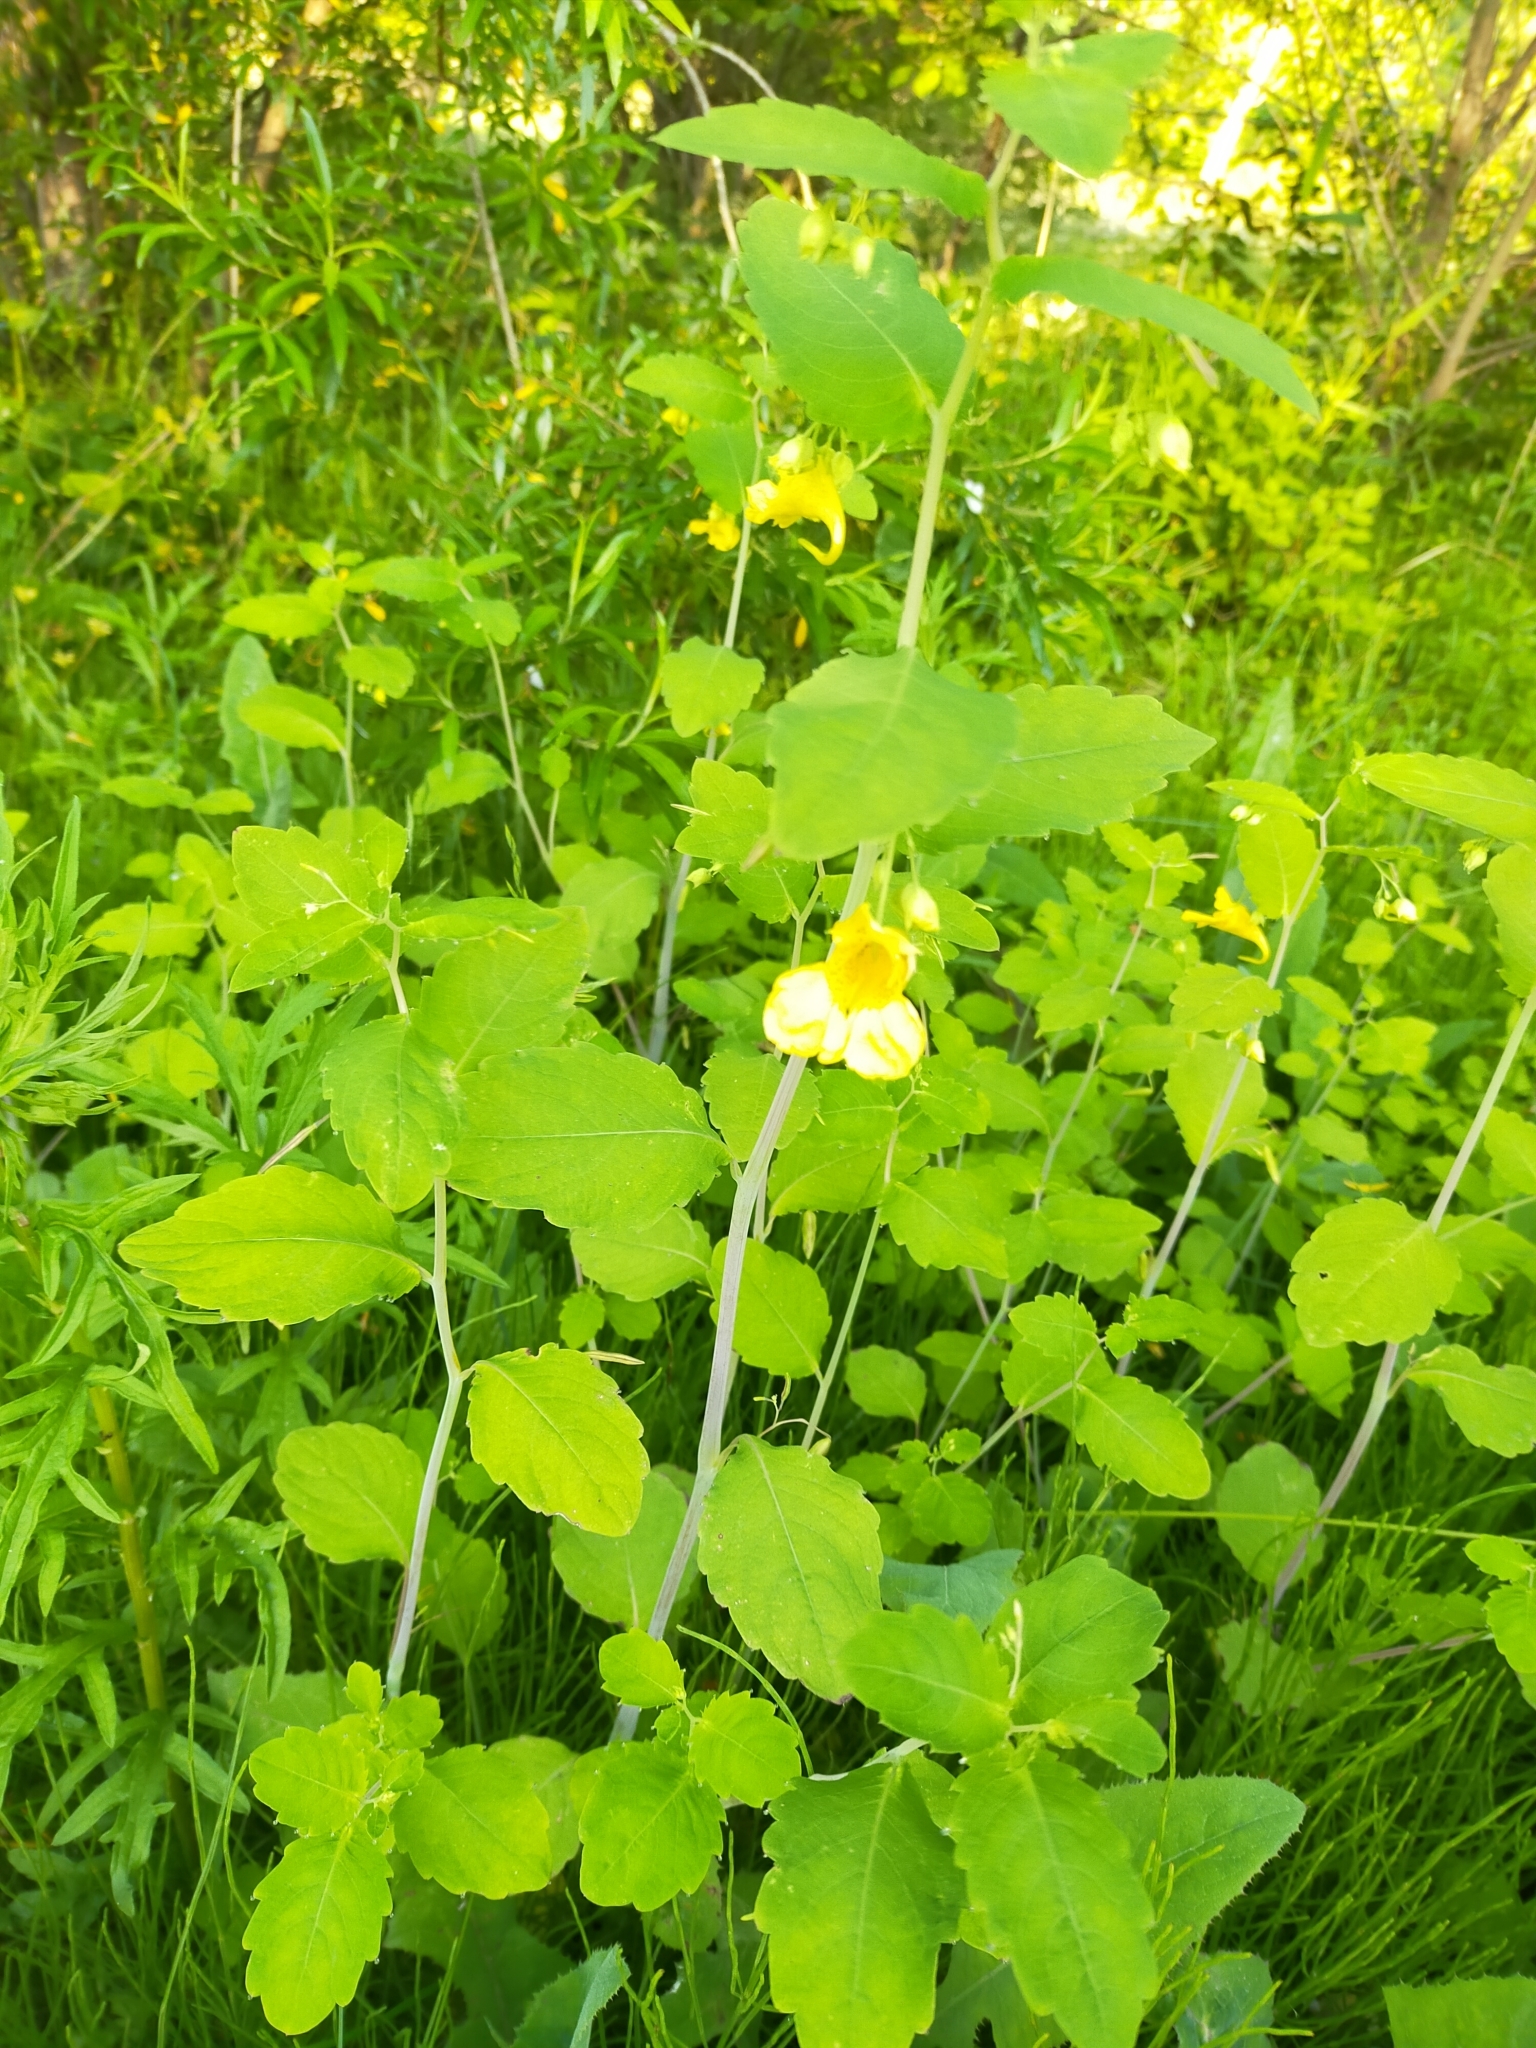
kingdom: Plantae
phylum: Tracheophyta
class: Magnoliopsida
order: Ericales
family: Balsaminaceae
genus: Impatiens
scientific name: Impatiens noli-tangere
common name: Touch-me-not balsam
